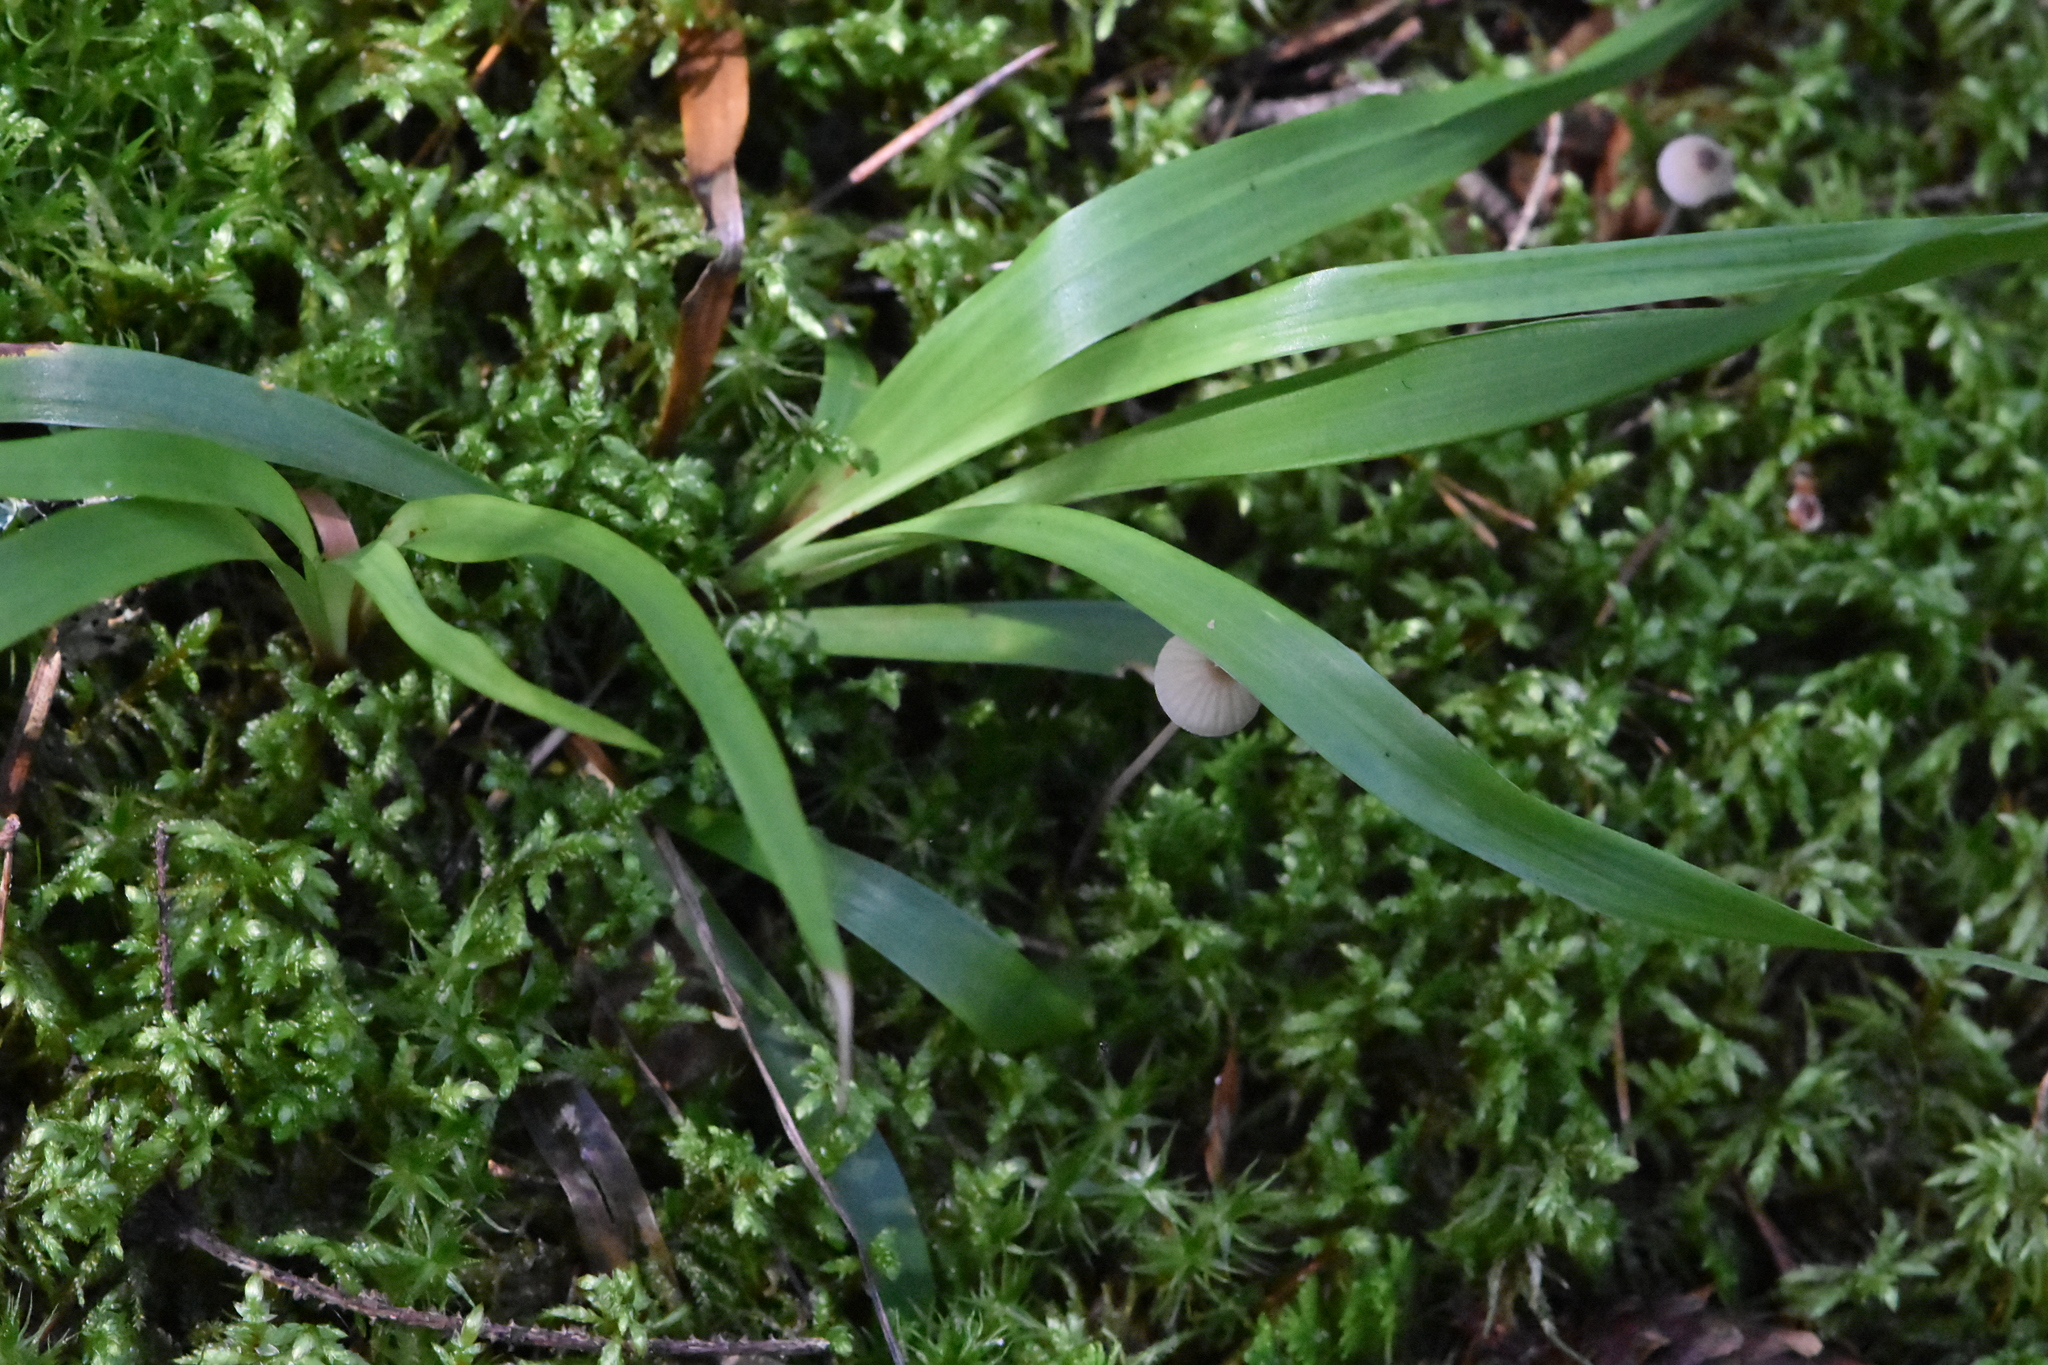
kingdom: Plantae
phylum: Tracheophyta
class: Liliopsida
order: Poales
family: Juncaceae
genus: Luzula
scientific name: Luzula pilosa
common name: Hairy wood-rush
